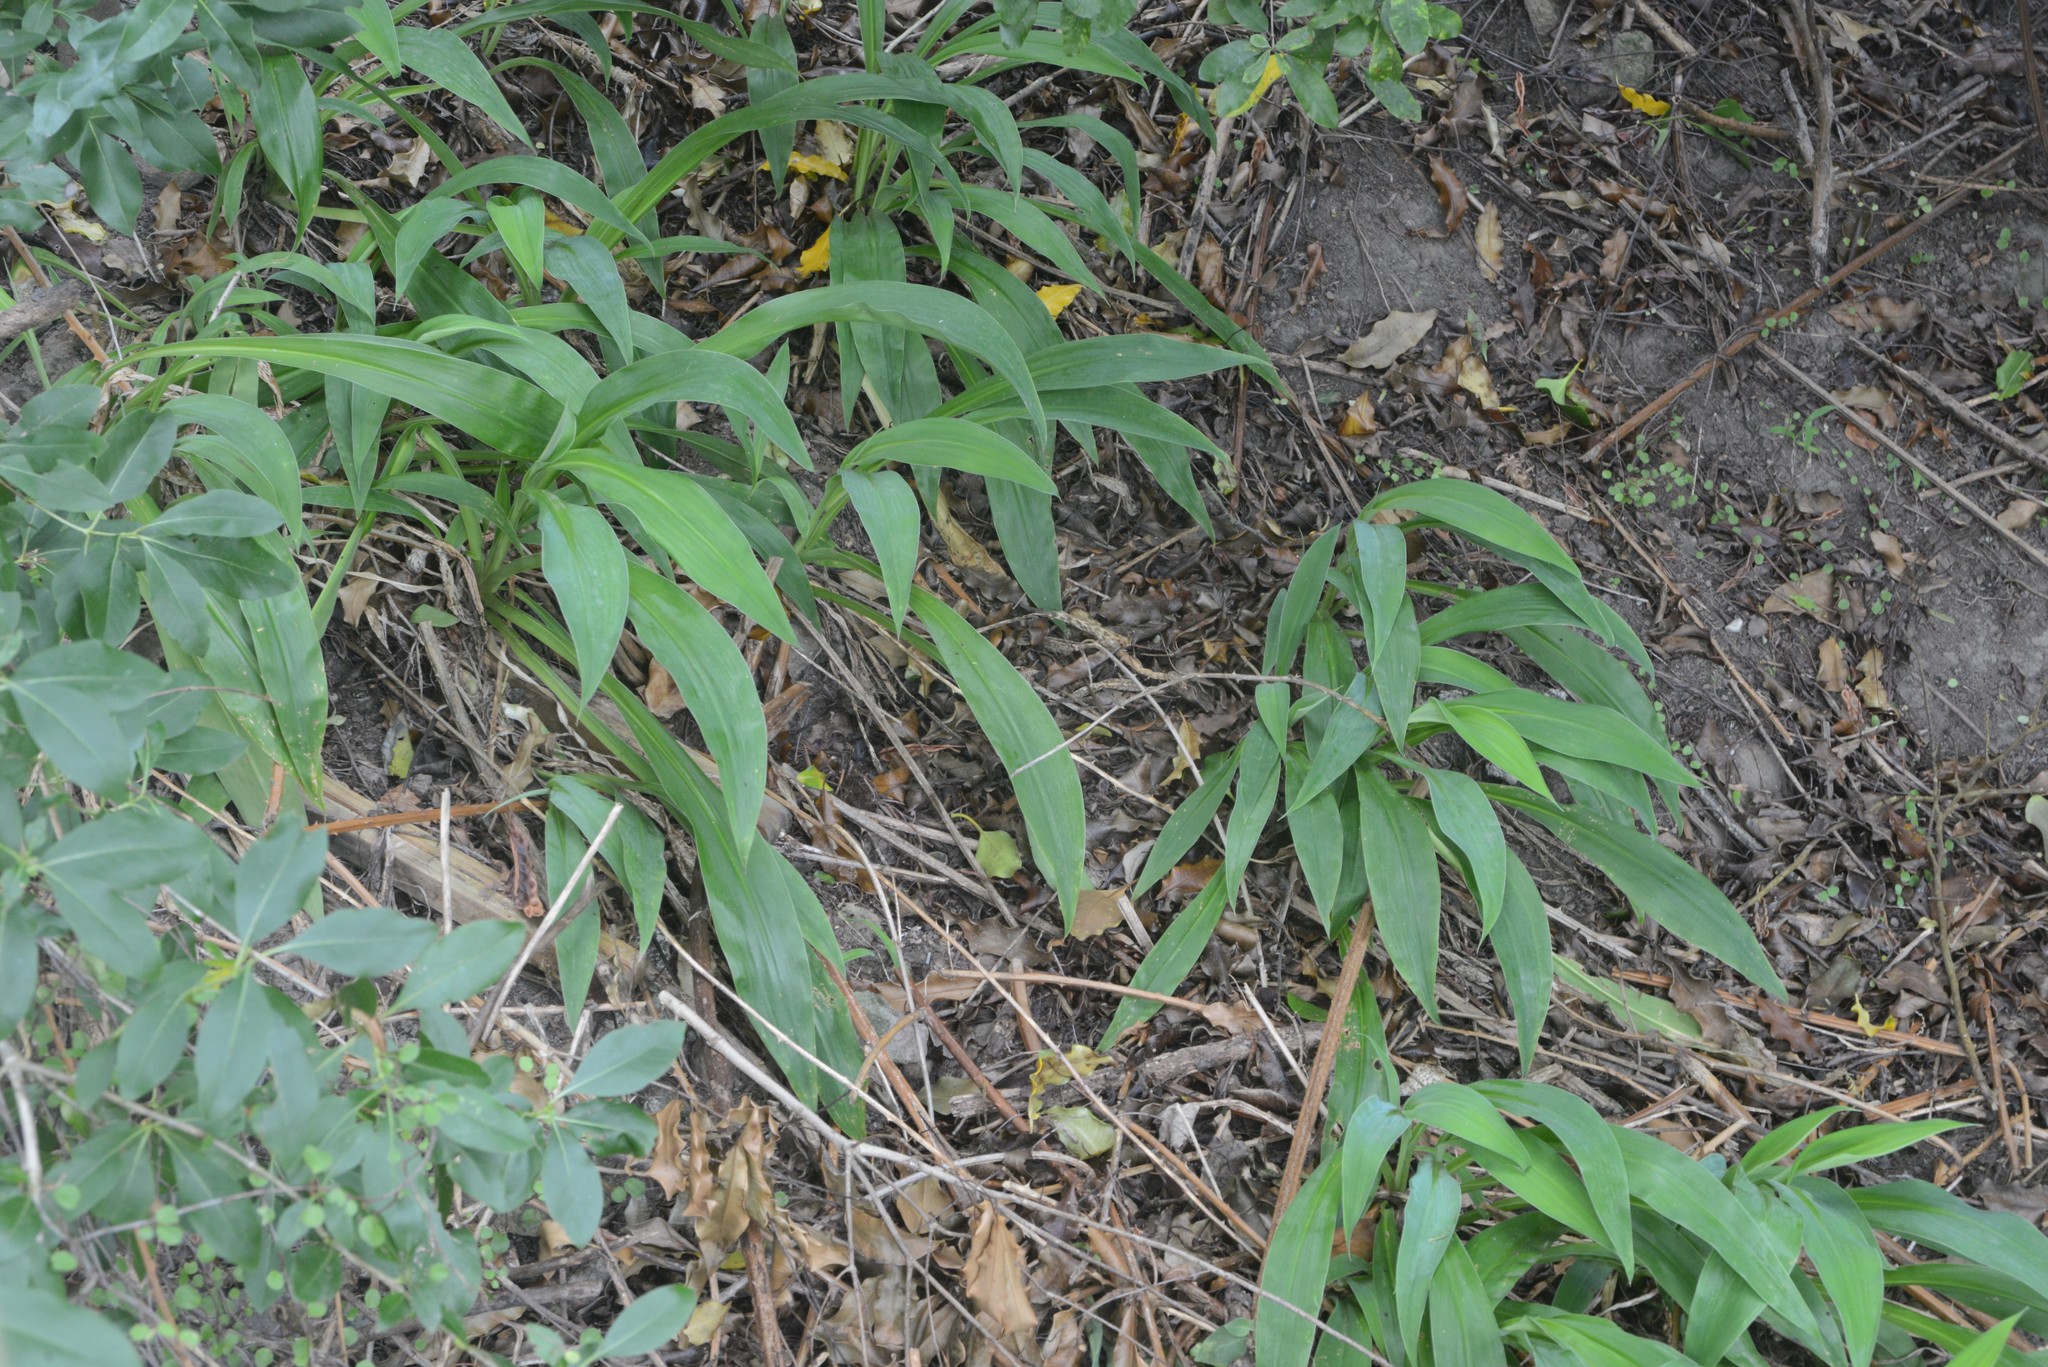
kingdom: Plantae
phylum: Tracheophyta
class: Liliopsida
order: Asparagales
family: Asparagaceae
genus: Arthropodium
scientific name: Arthropodium cirratum
